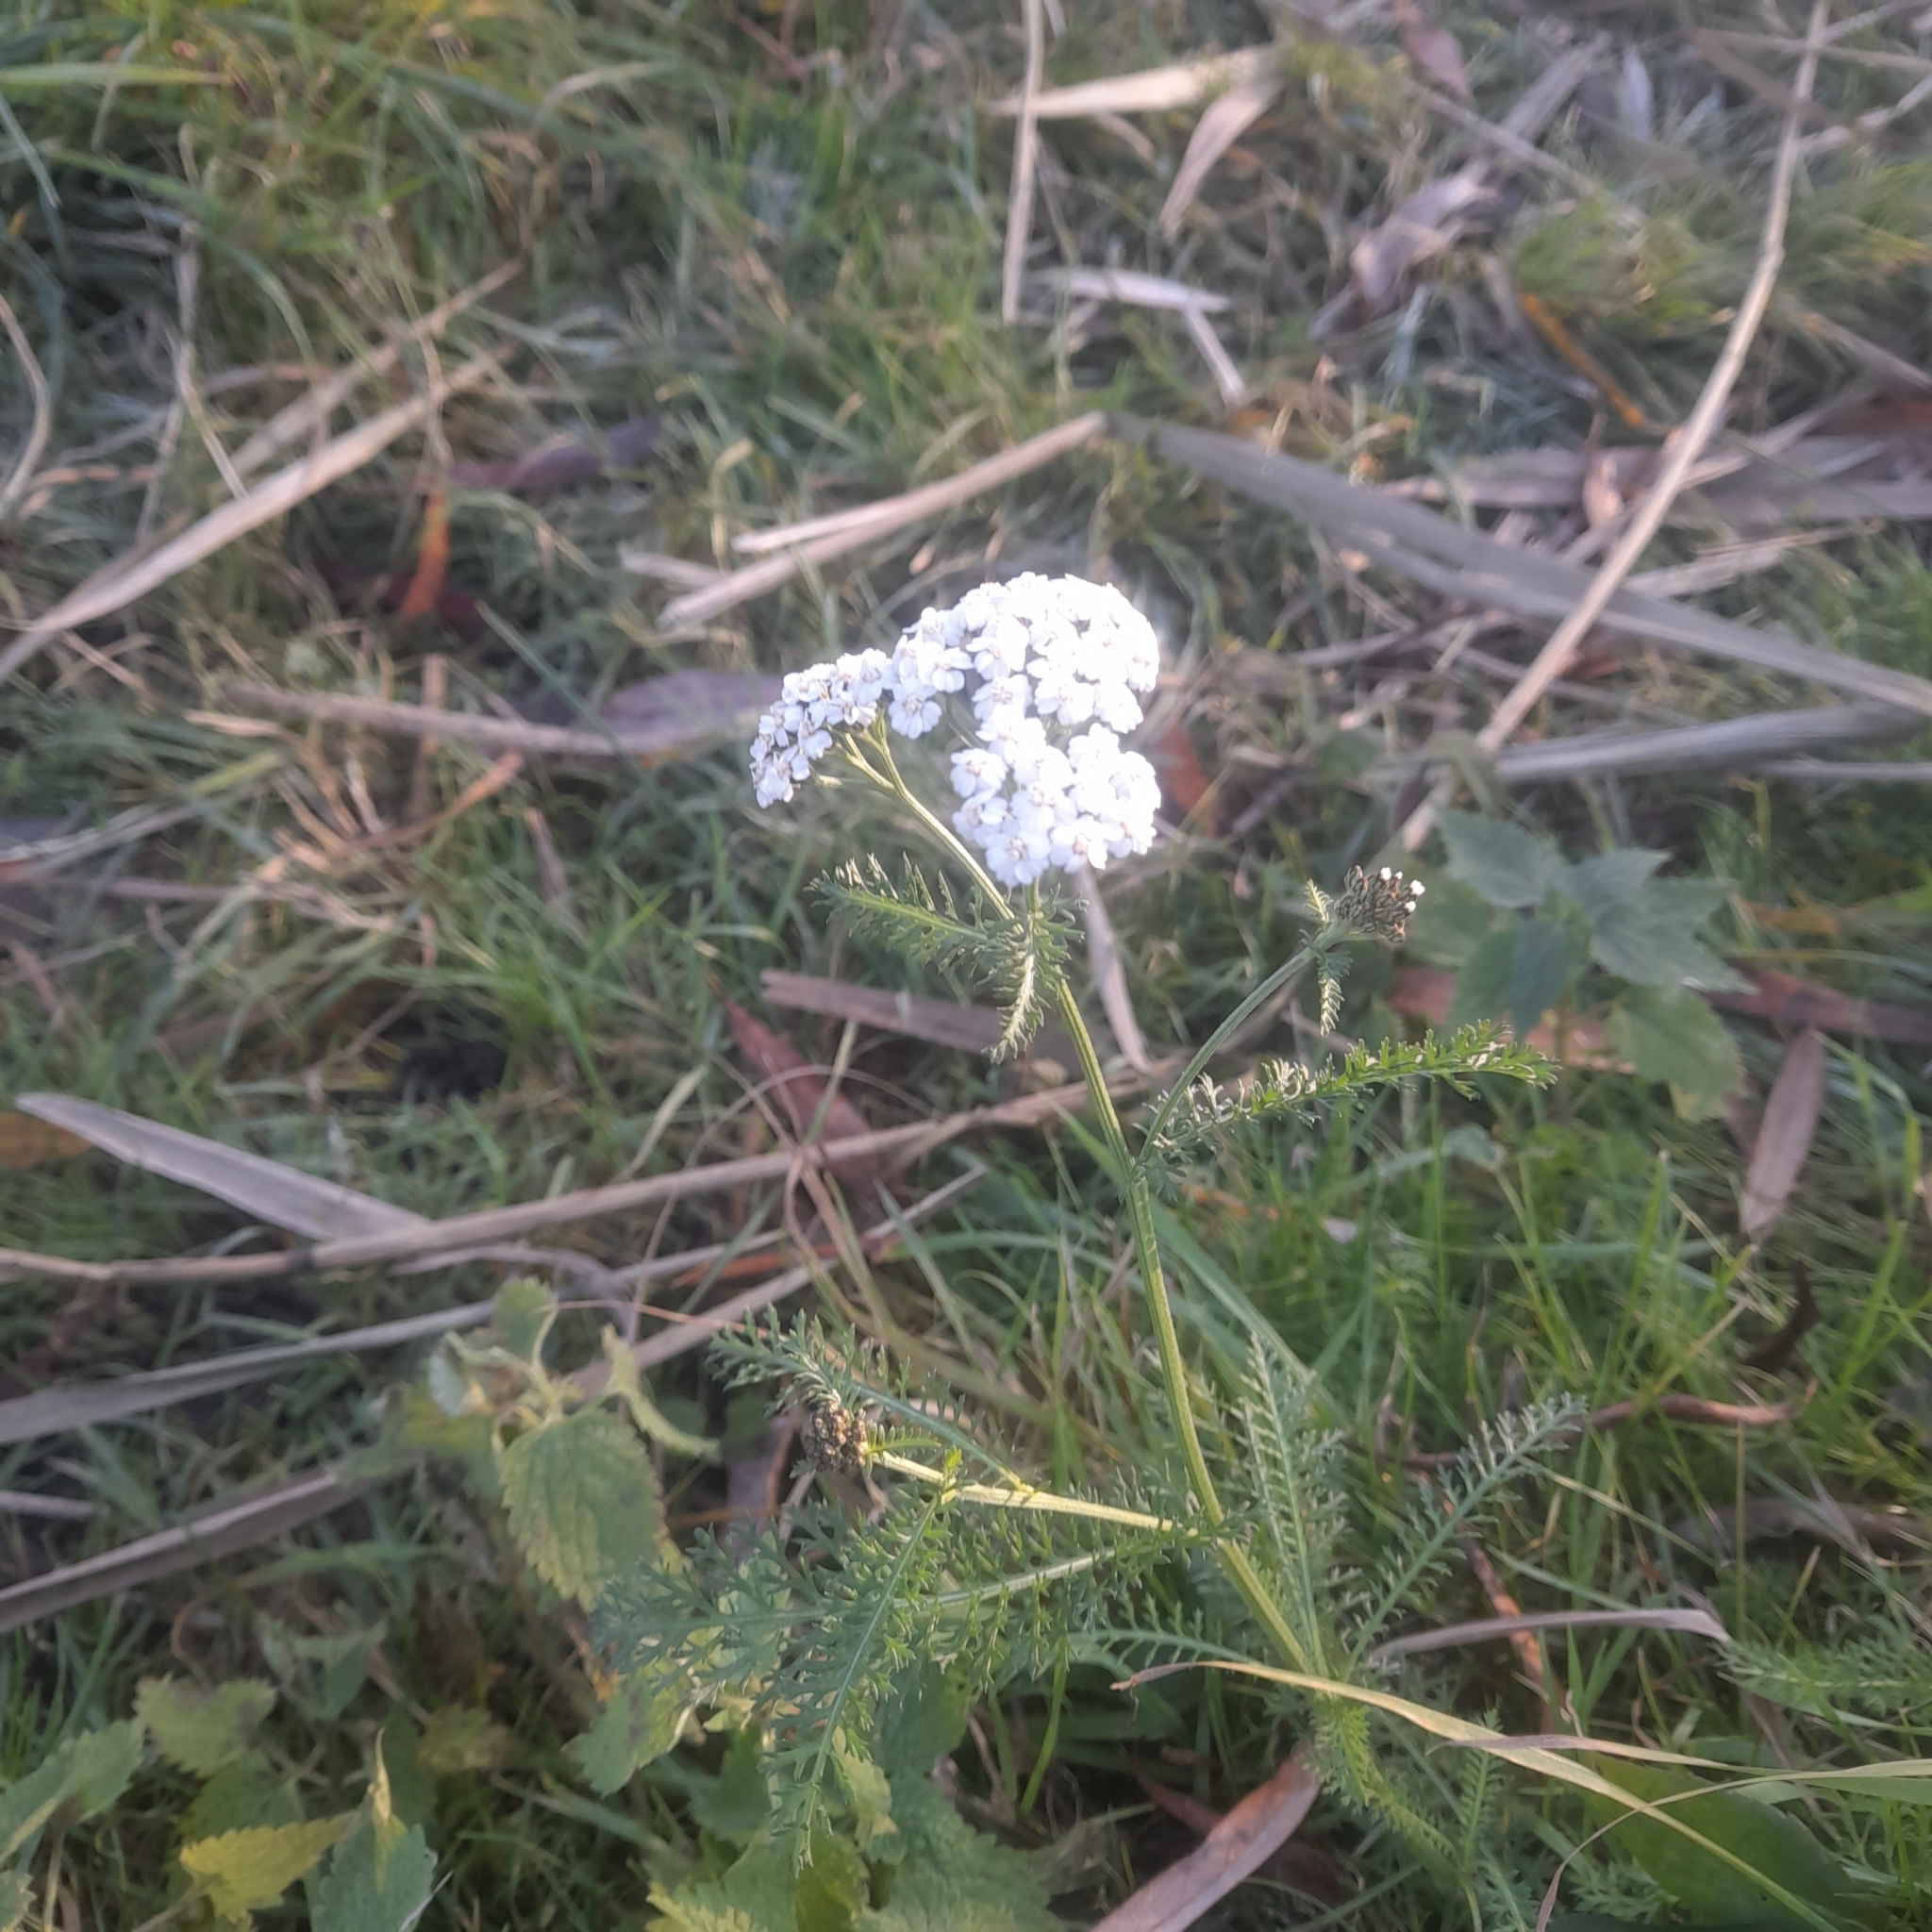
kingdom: Plantae
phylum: Tracheophyta
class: Magnoliopsida
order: Asterales
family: Asteraceae
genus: Achillea
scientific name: Achillea millefolium
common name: Yarrow
